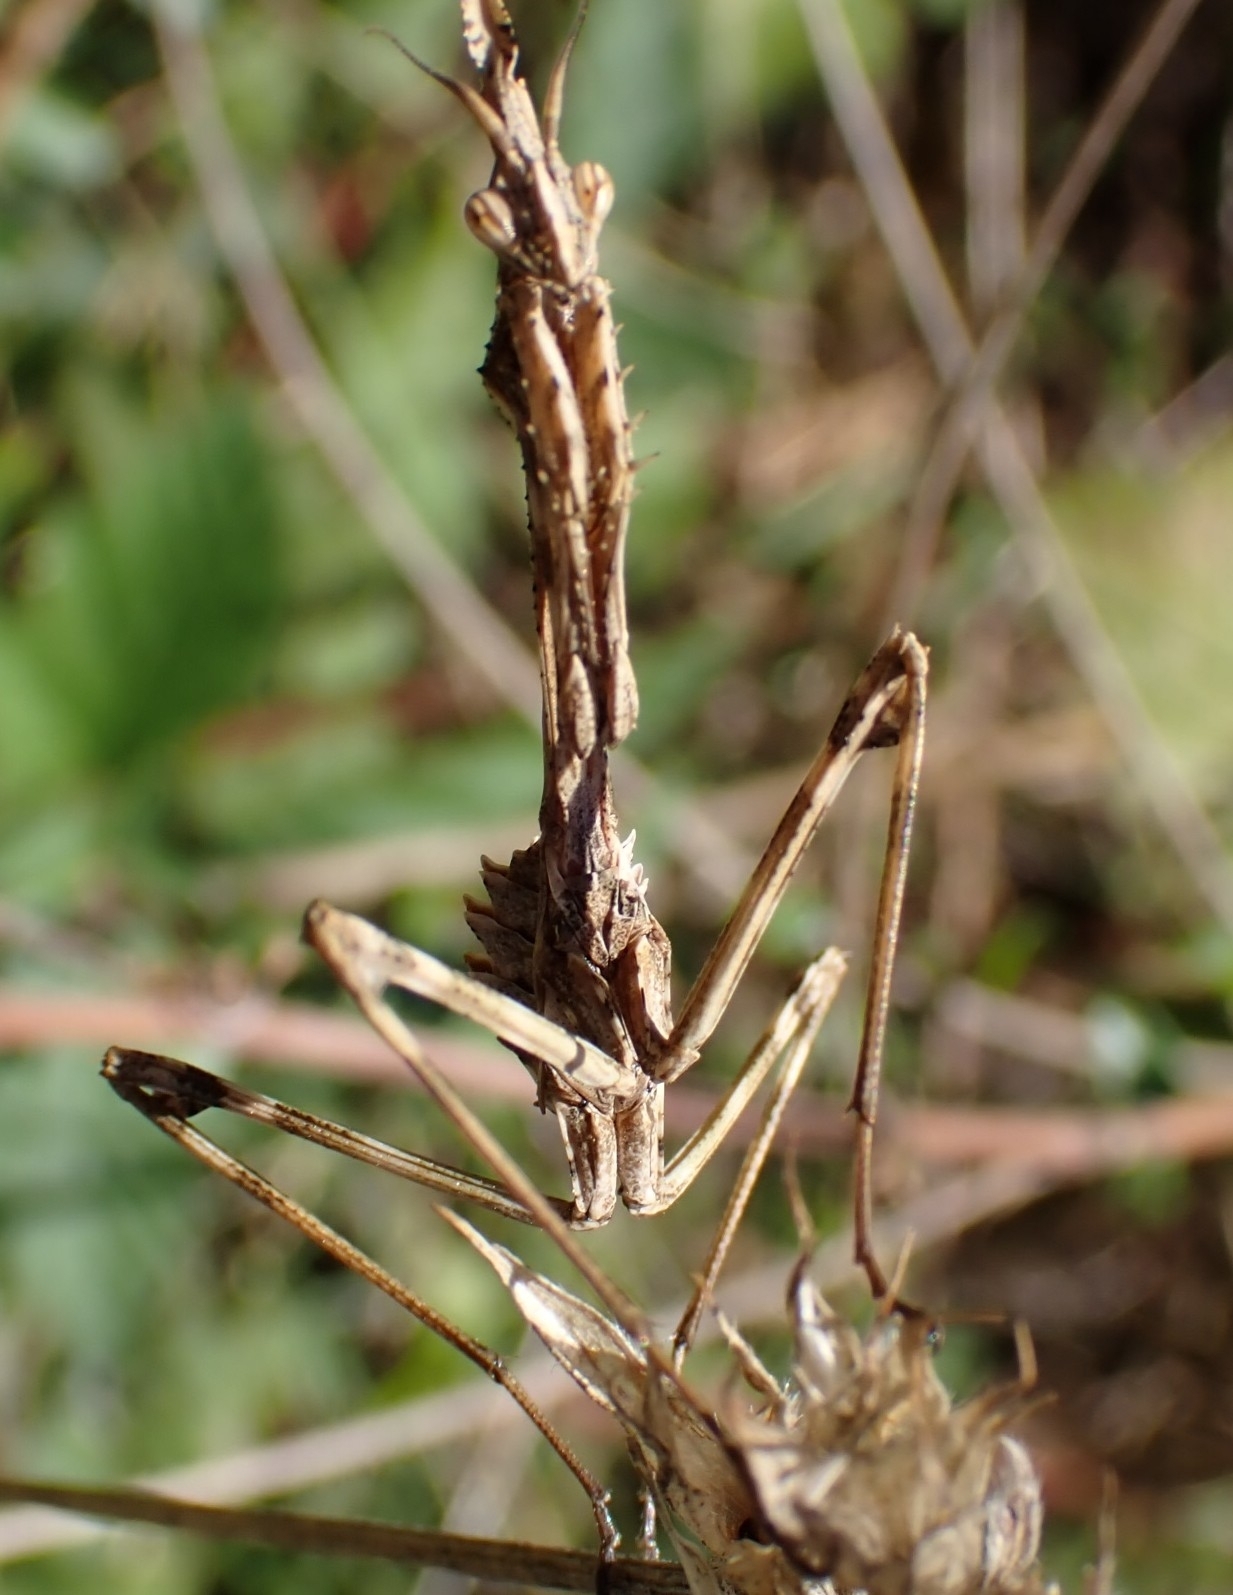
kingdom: Animalia
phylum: Arthropoda
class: Insecta
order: Mantodea
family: Empusidae
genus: Empusa
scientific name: Empusa pennata
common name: Conehead mantis
